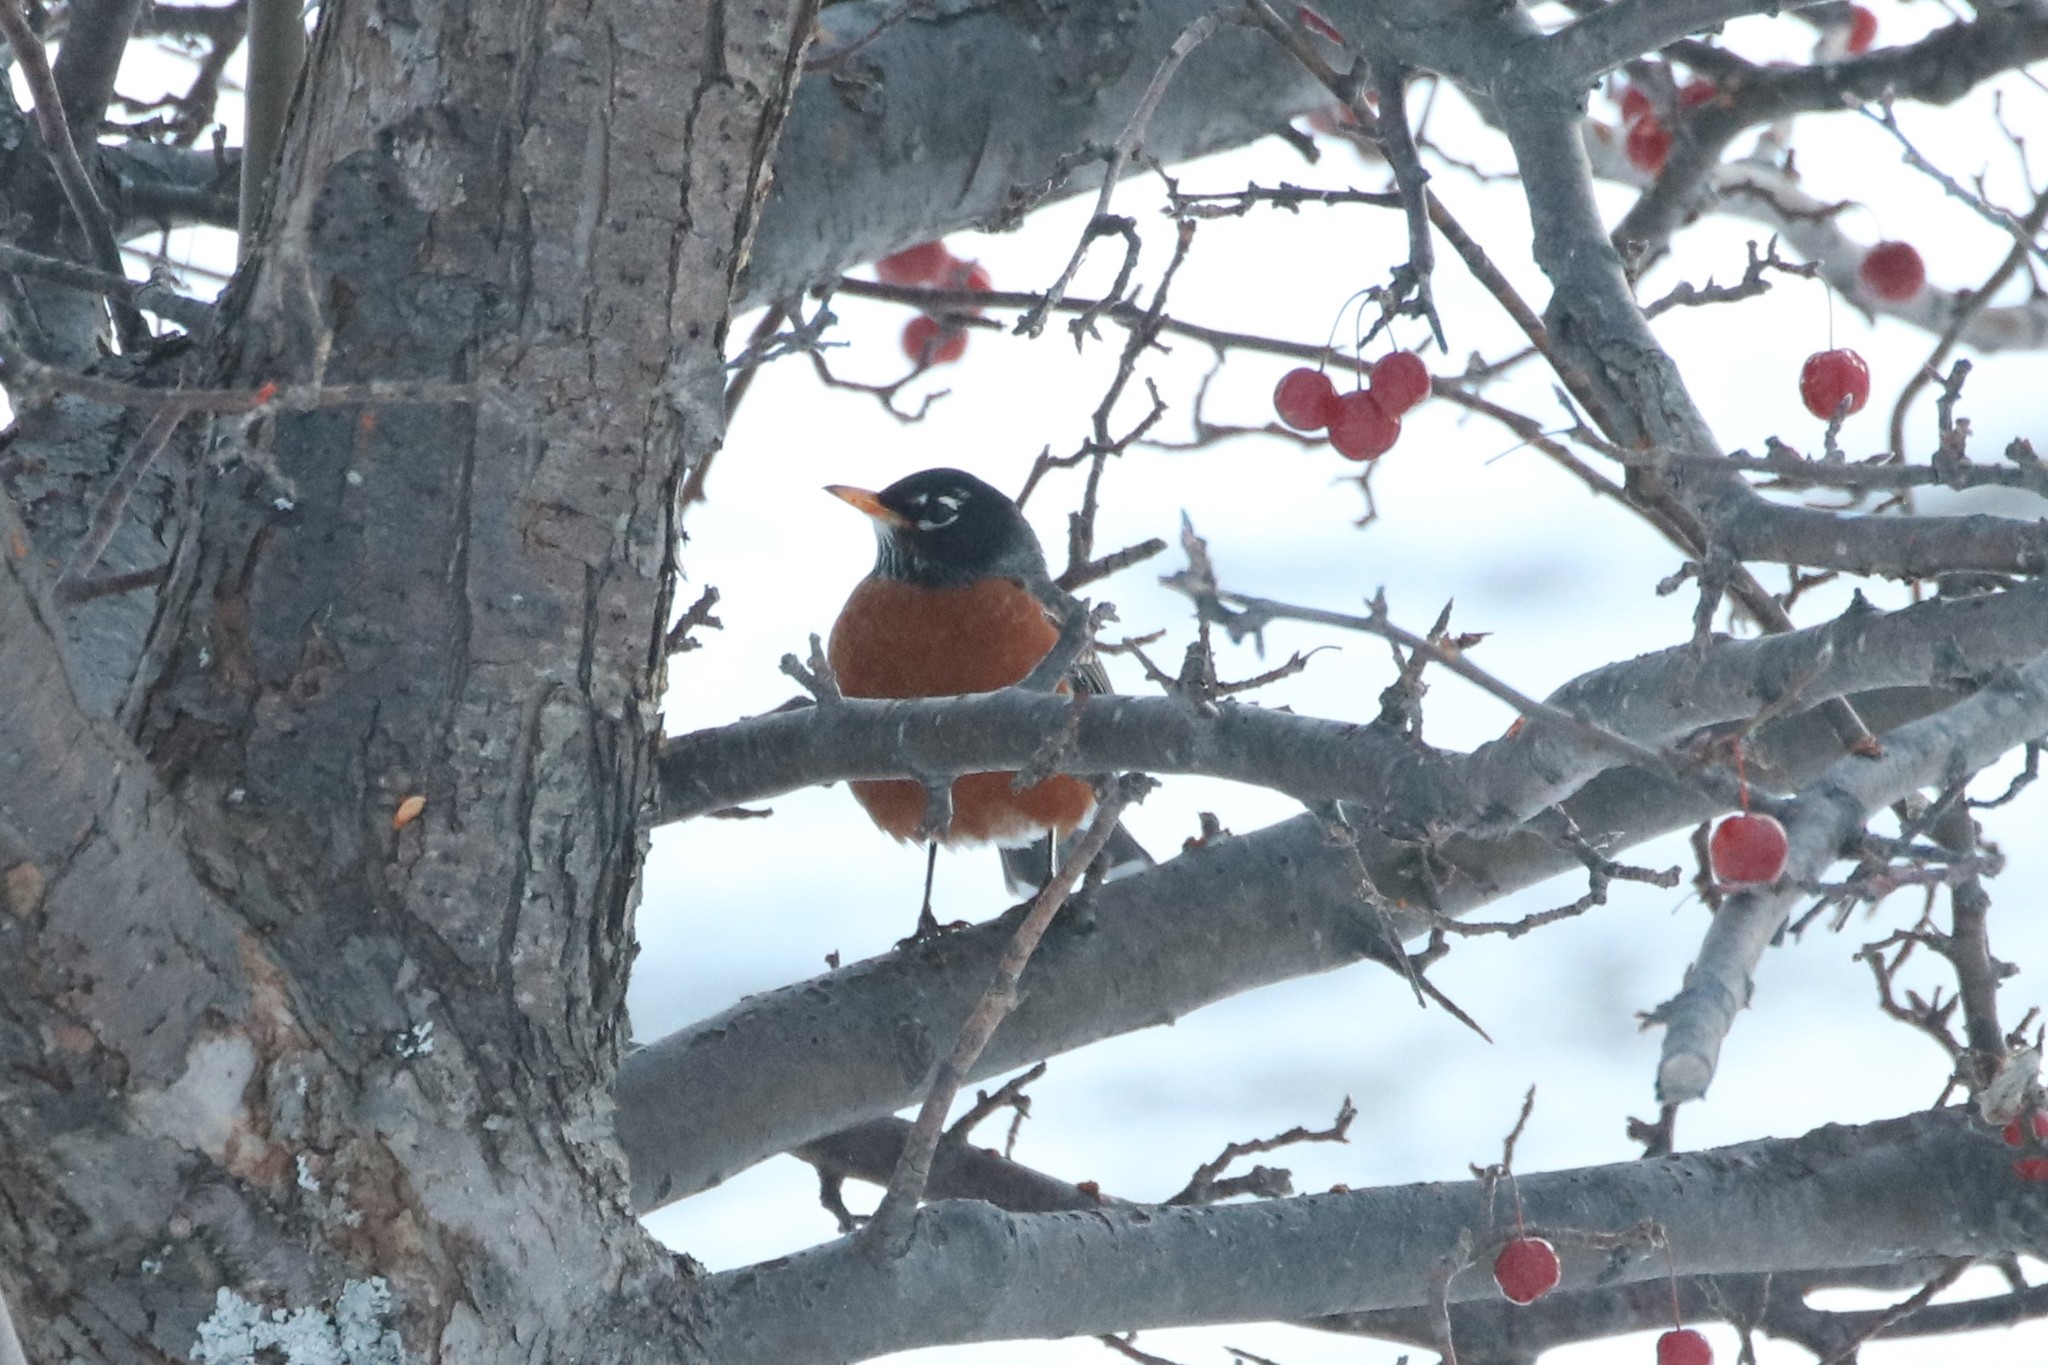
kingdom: Animalia
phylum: Chordata
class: Aves
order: Passeriformes
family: Turdidae
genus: Turdus
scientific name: Turdus migratorius
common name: American robin
